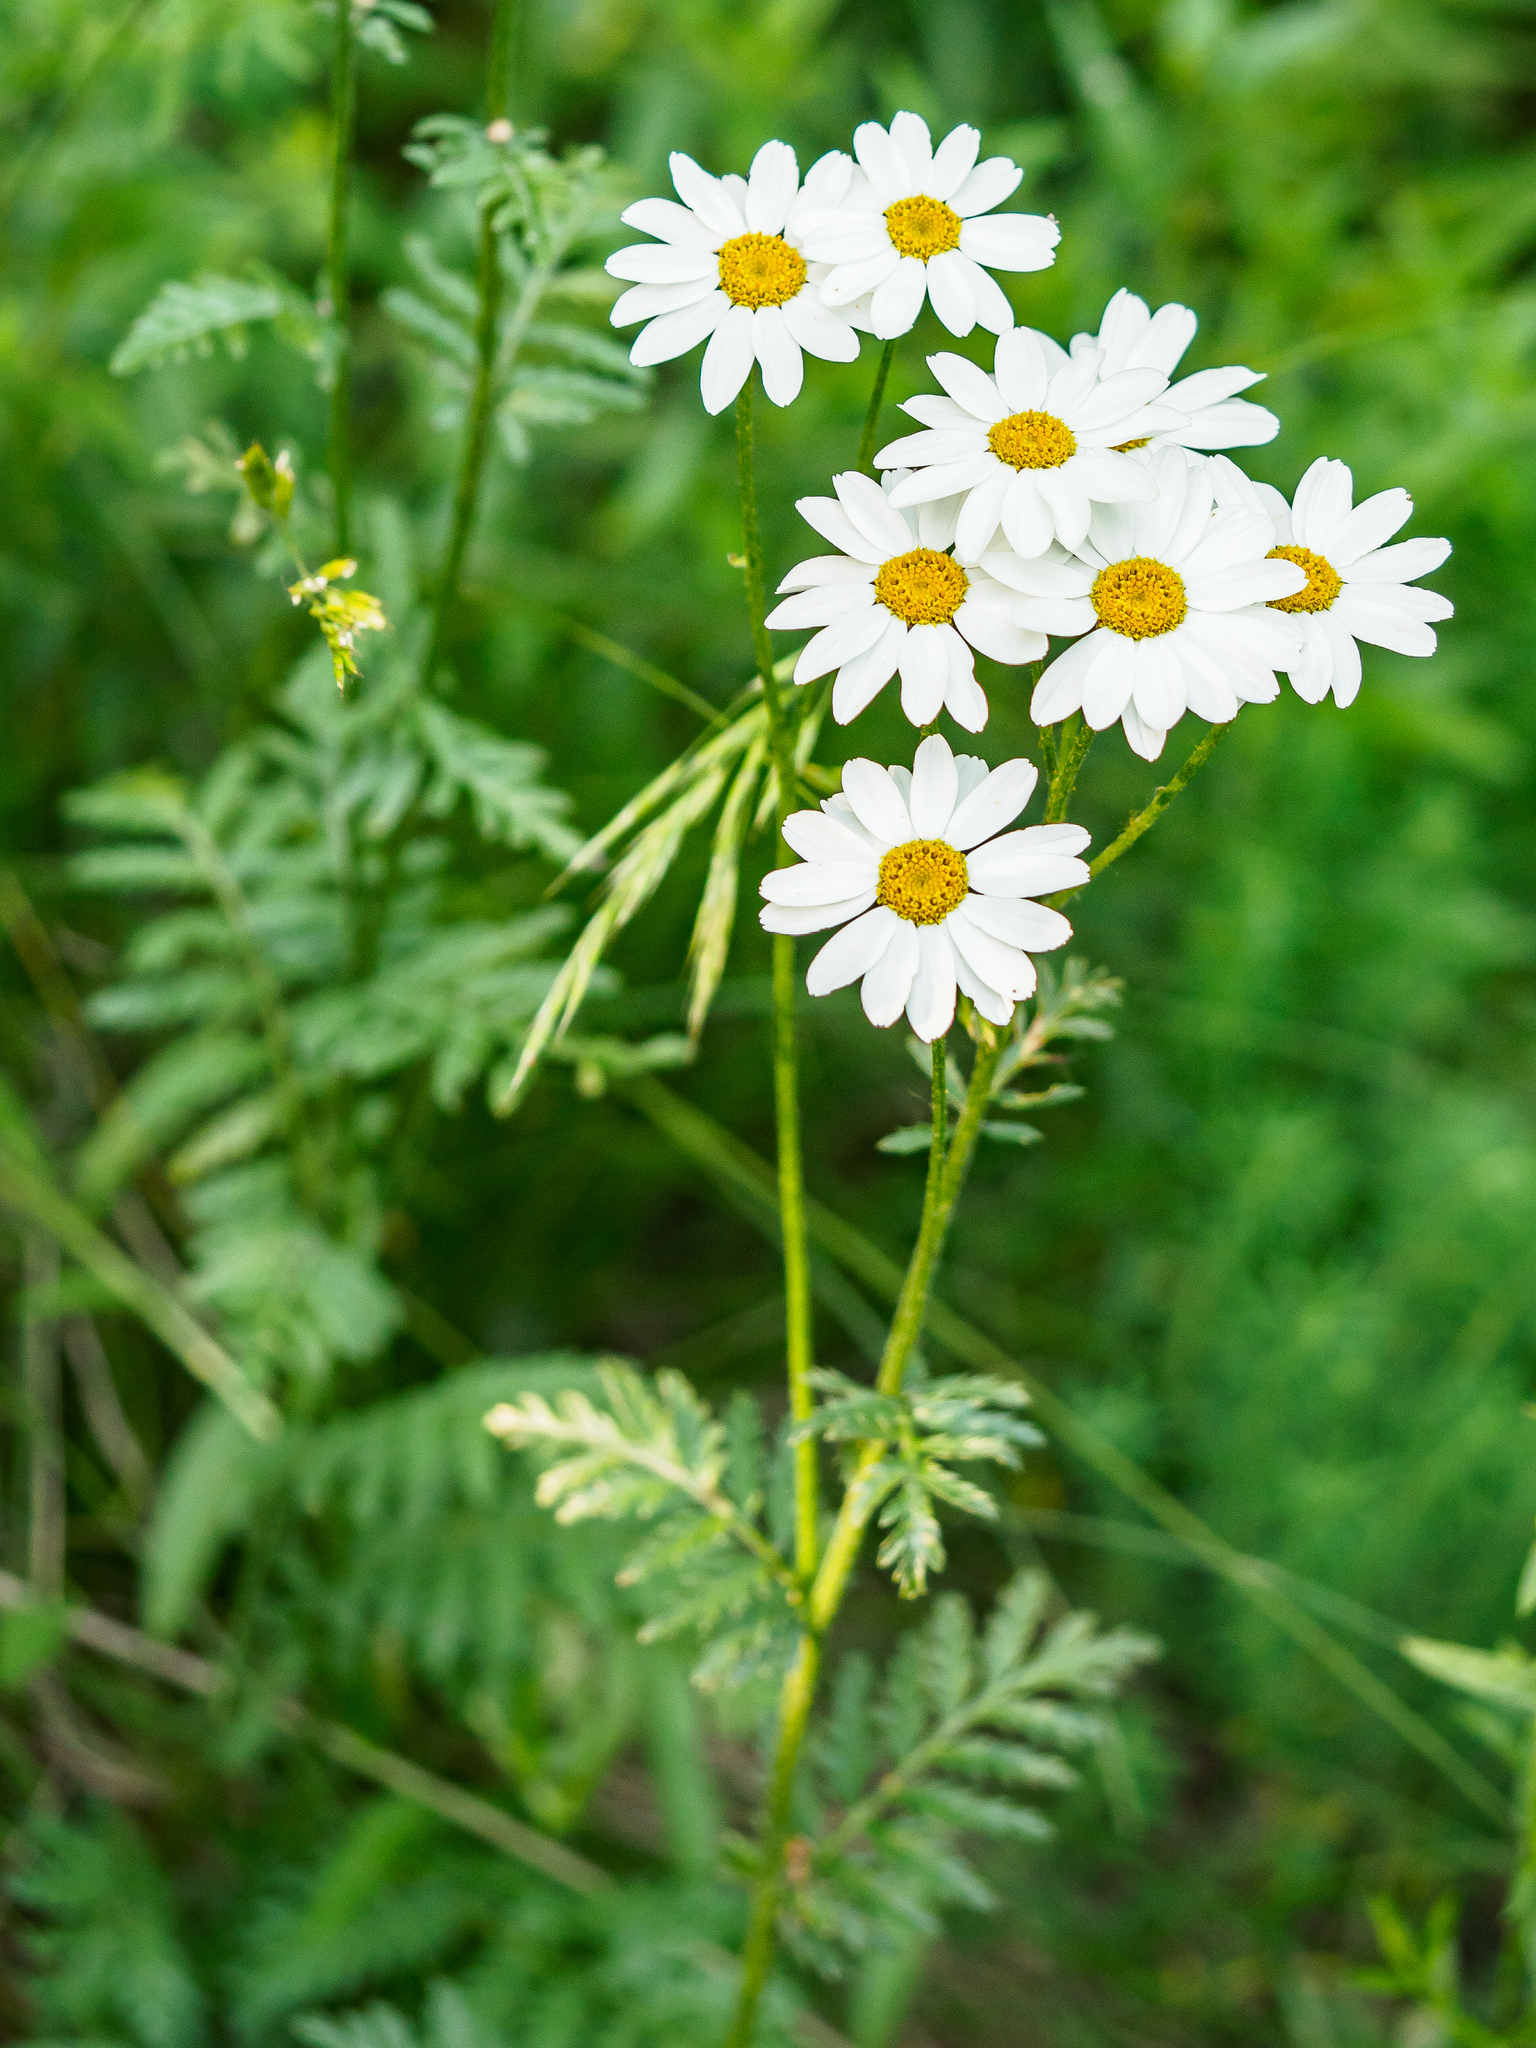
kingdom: Plantae
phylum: Tracheophyta
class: Magnoliopsida
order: Asterales
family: Asteraceae
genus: Tanacetum
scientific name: Tanacetum corymbosum
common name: Scentless feverfew
